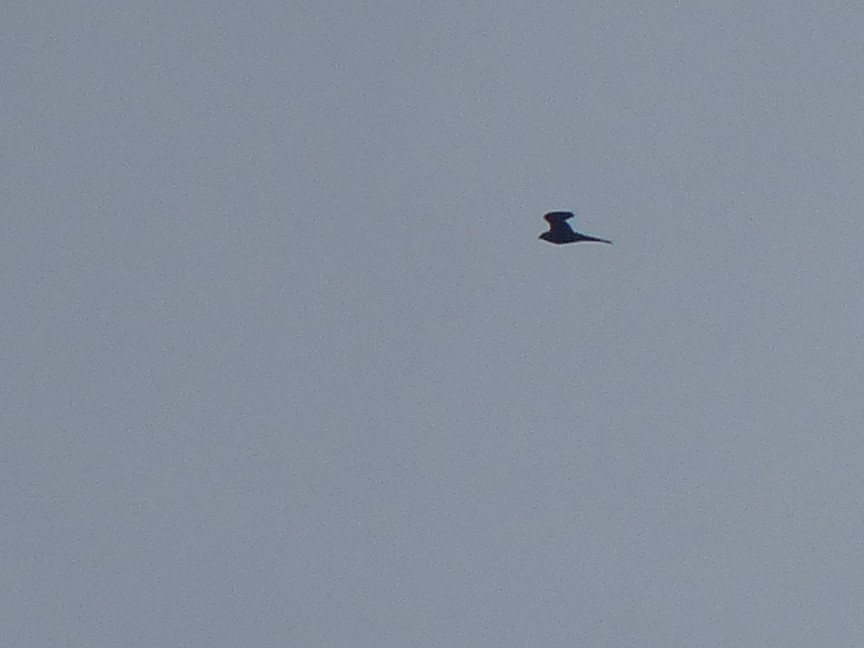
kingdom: Animalia
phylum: Chordata
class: Aves
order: Falconiformes
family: Falconidae
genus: Falco
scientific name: Falco peregrinus
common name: Peregrine falcon
